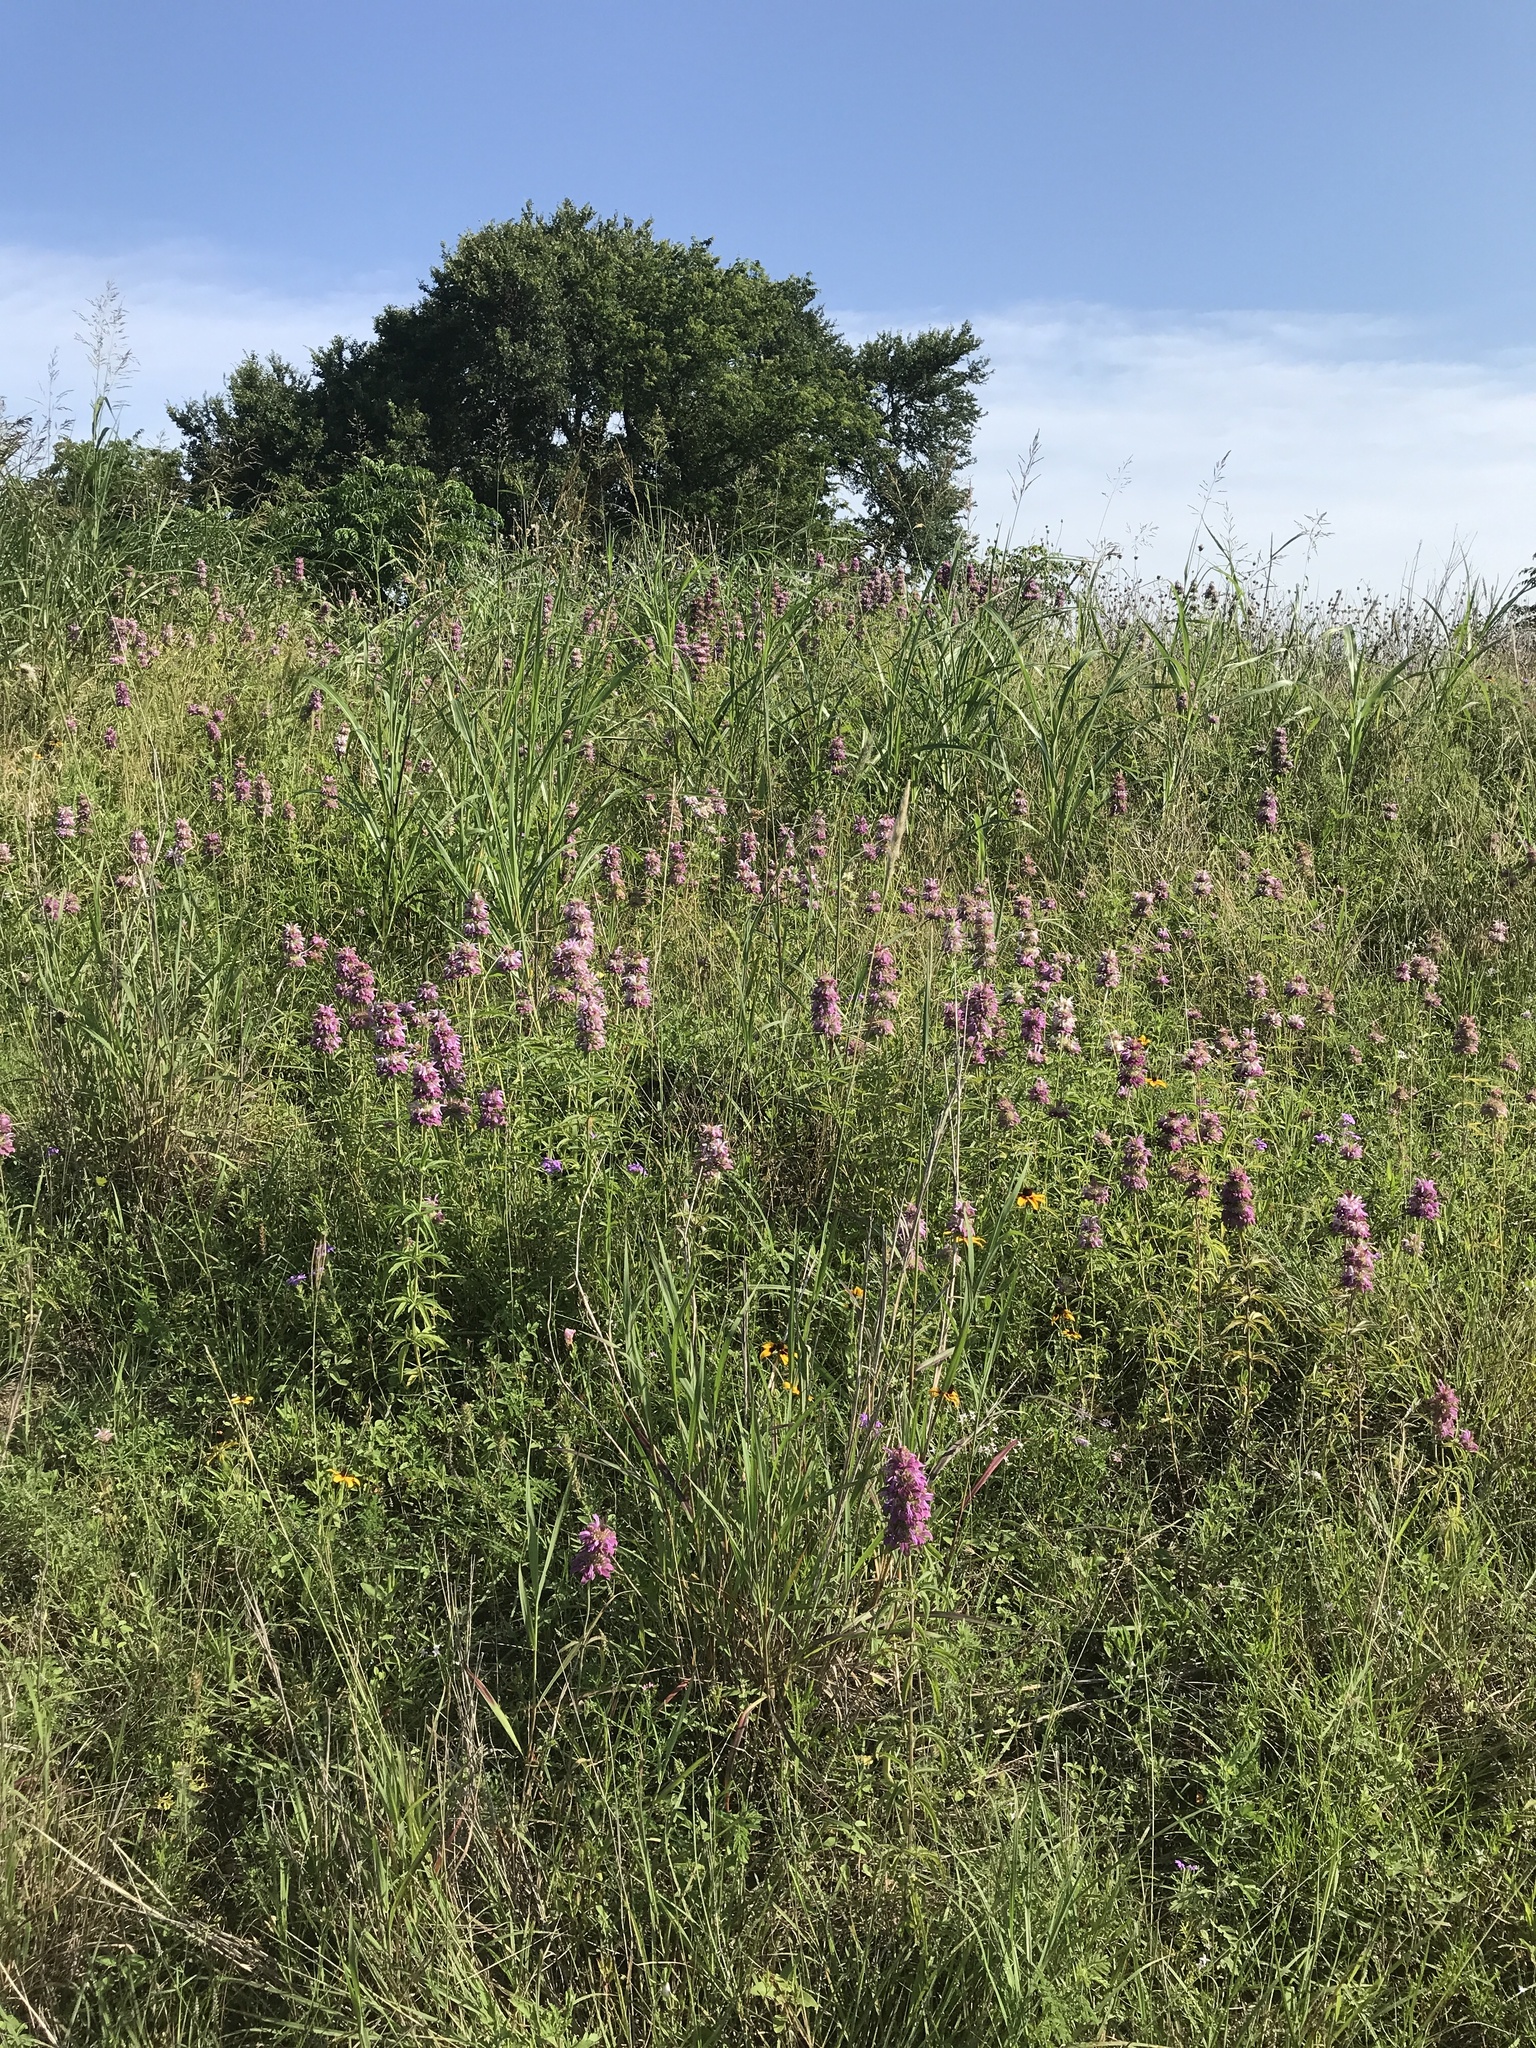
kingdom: Plantae
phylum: Tracheophyta
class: Magnoliopsida
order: Lamiales
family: Lamiaceae
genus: Monarda
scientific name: Monarda citriodora
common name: Lemon beebalm
